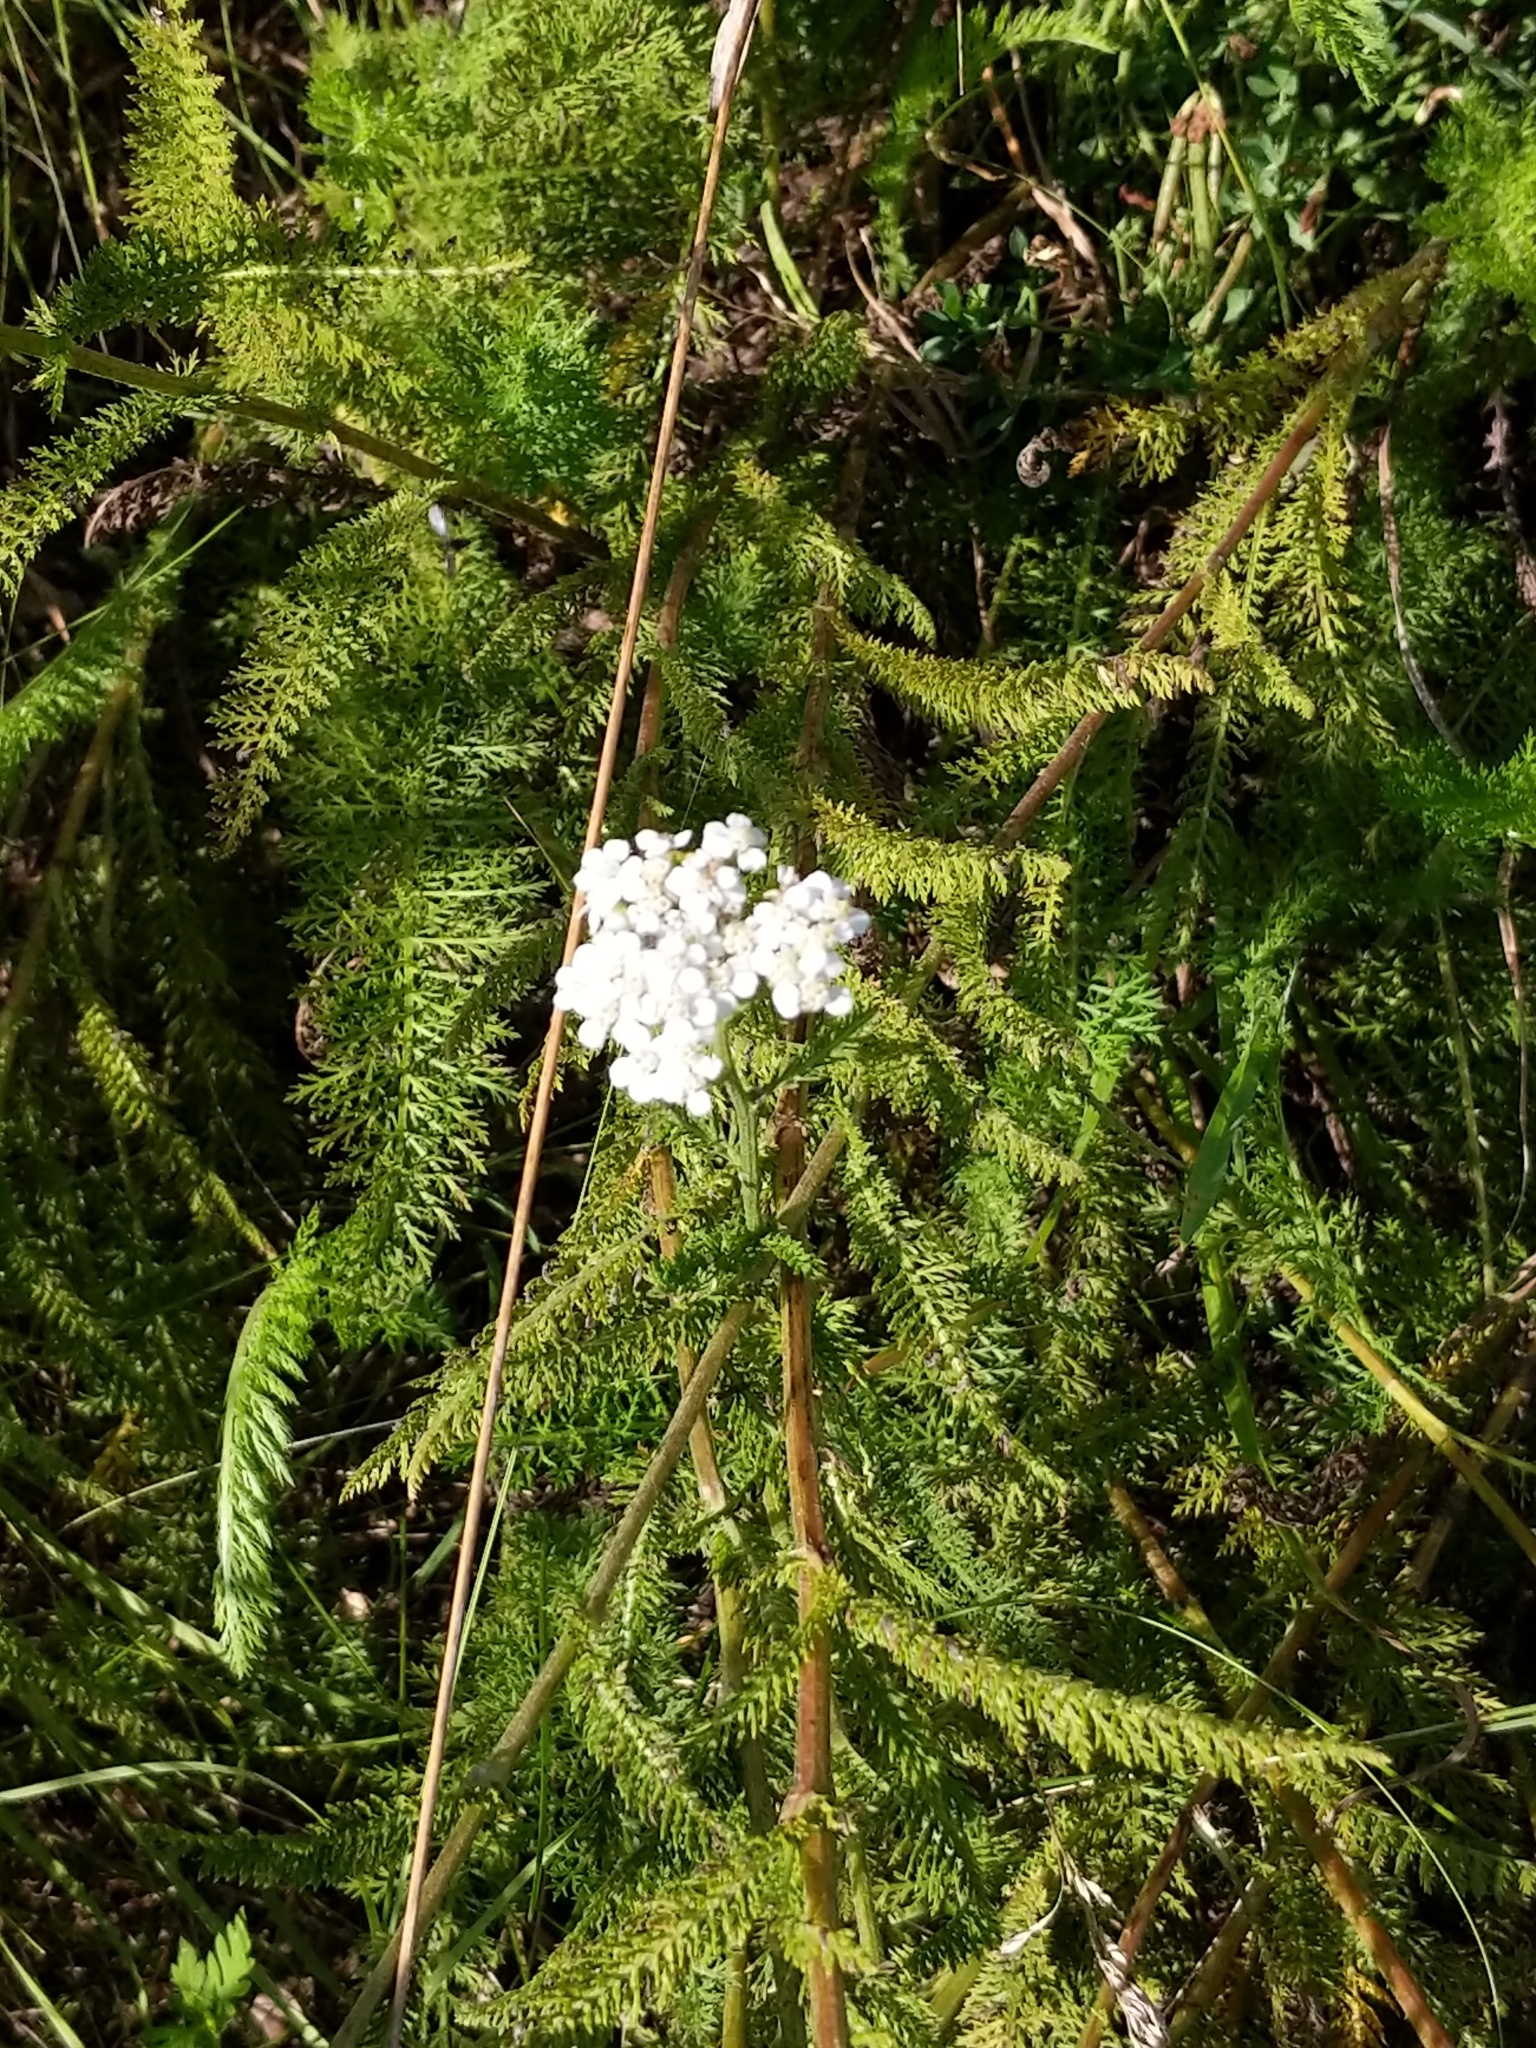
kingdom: Plantae
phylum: Tracheophyta
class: Magnoliopsida
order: Asterales
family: Asteraceae
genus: Achillea
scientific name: Achillea millefolium
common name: Yarrow
